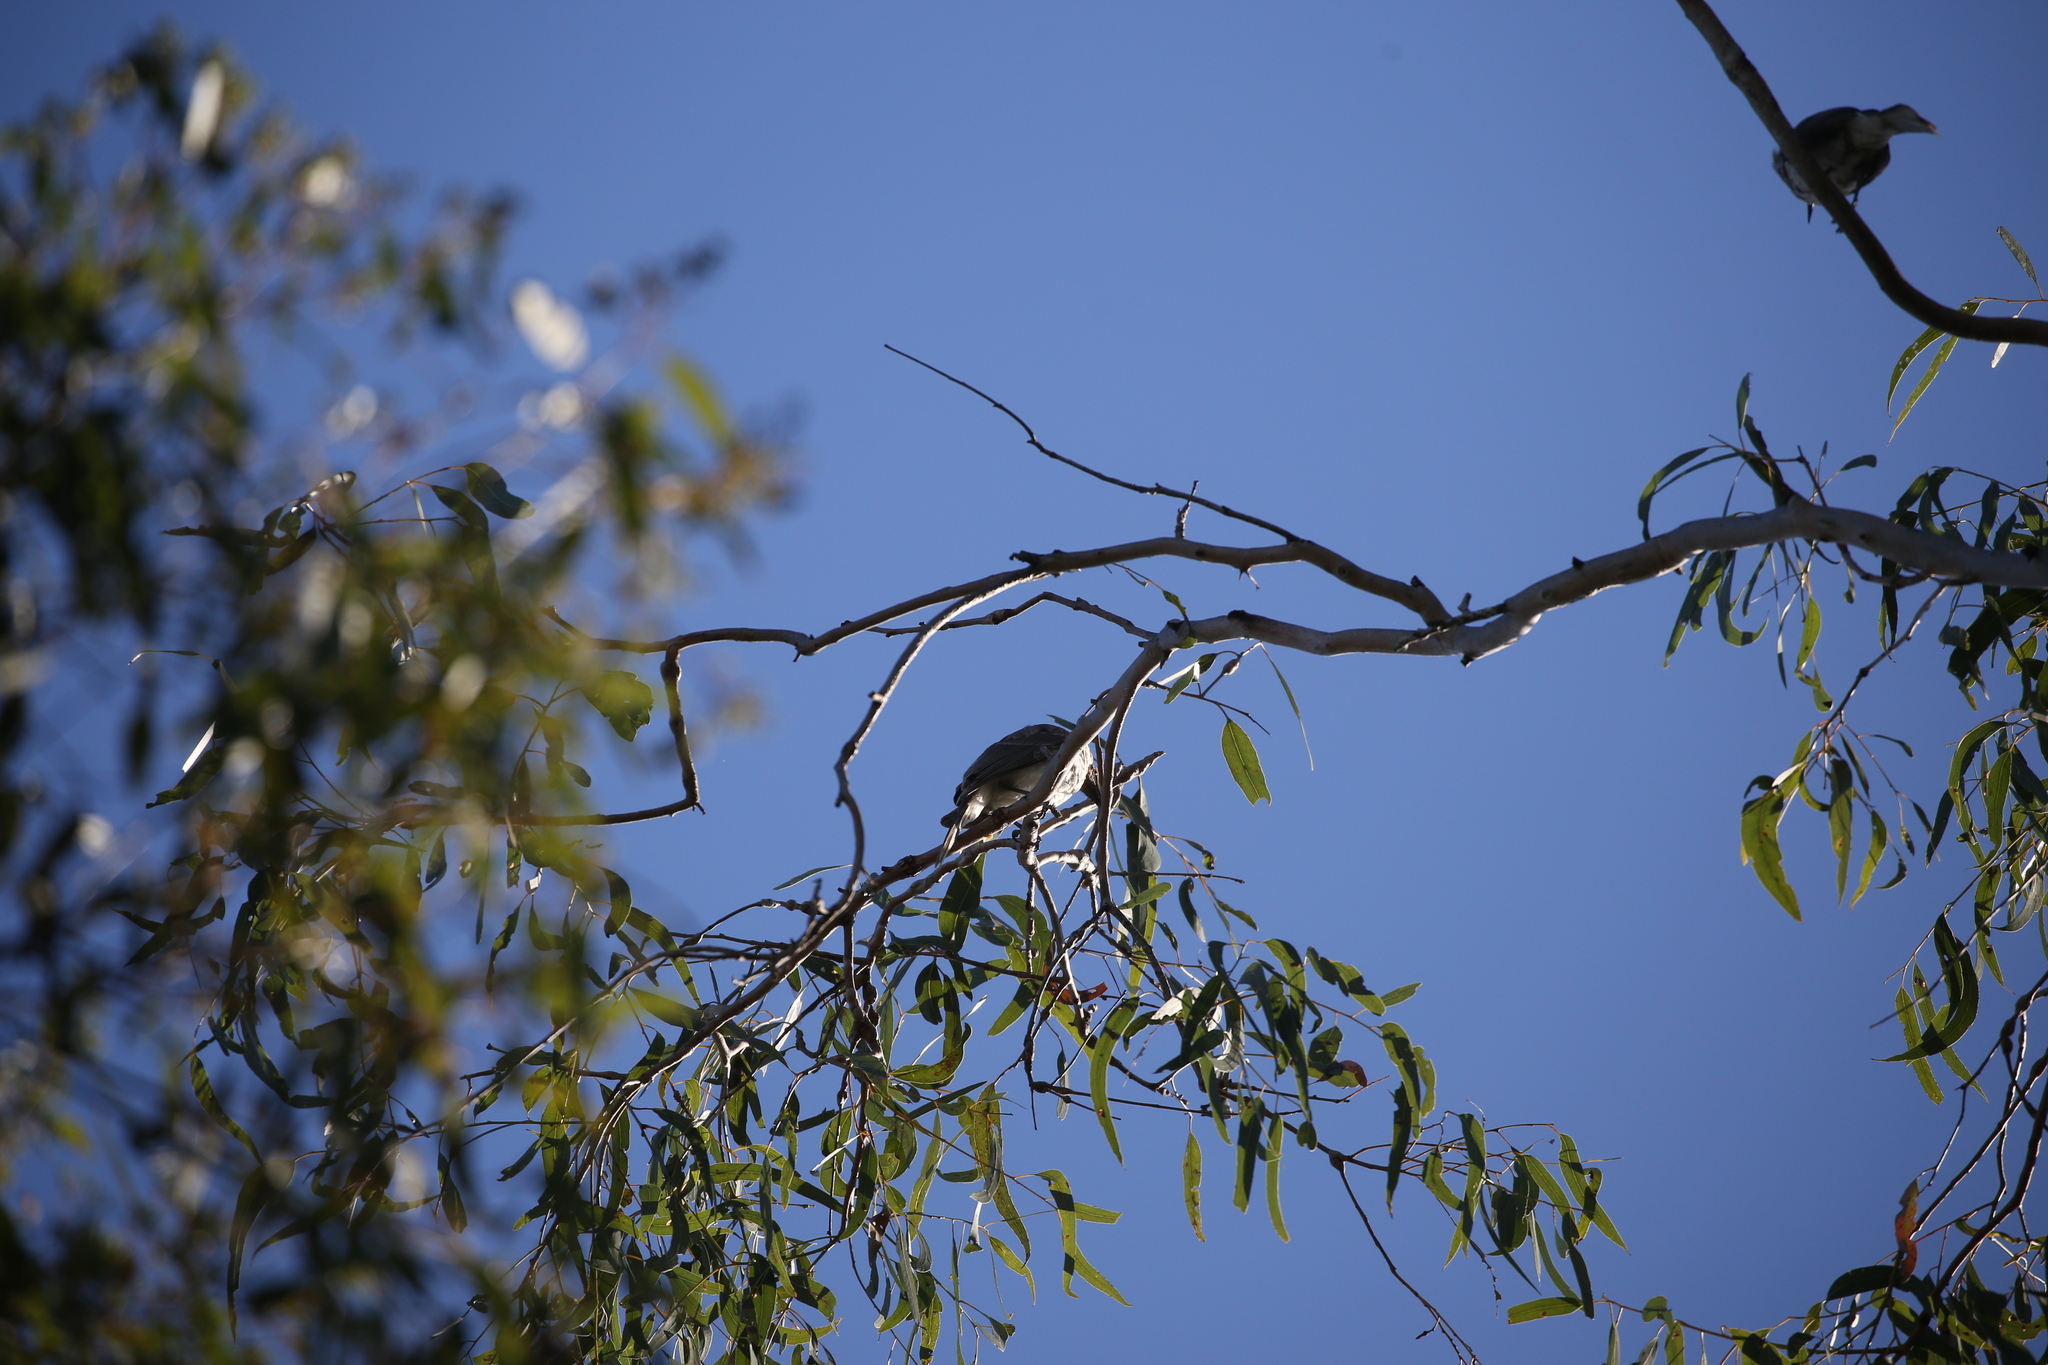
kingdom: Animalia
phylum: Chordata
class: Aves
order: Passeriformes
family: Meliphagidae
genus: Philemon
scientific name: Philemon corniculatus
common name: Noisy friarbird
